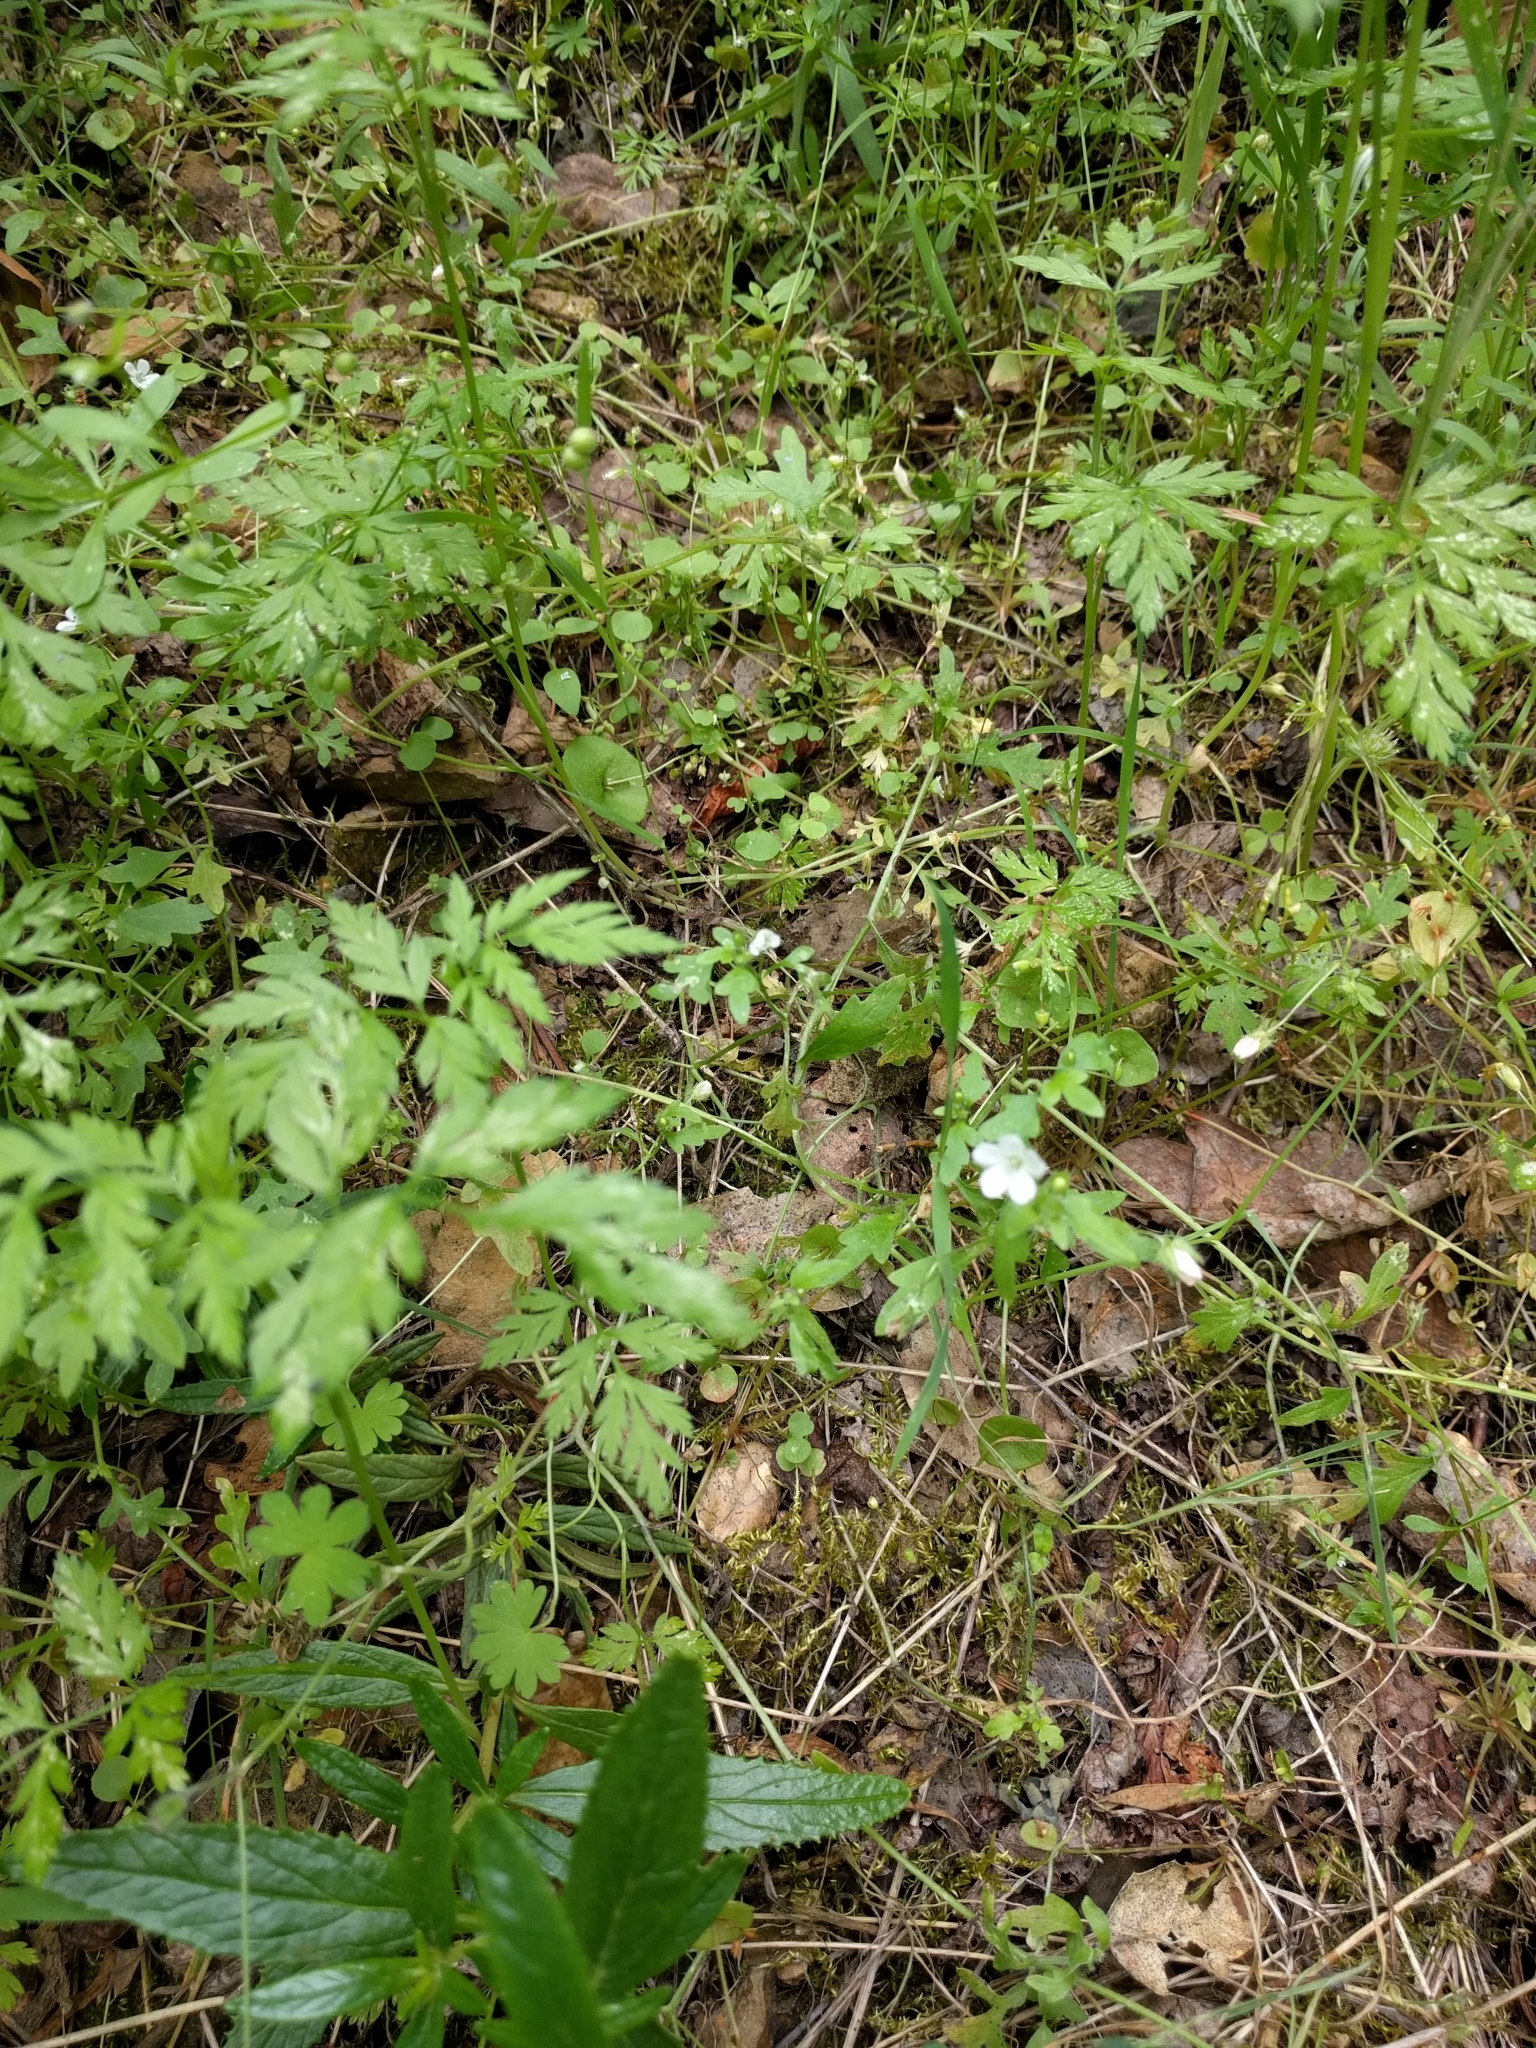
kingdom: Plantae
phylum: Tracheophyta
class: Magnoliopsida
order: Boraginales
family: Hydrophyllaceae
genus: Nemophila
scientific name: Nemophila heterophylla
